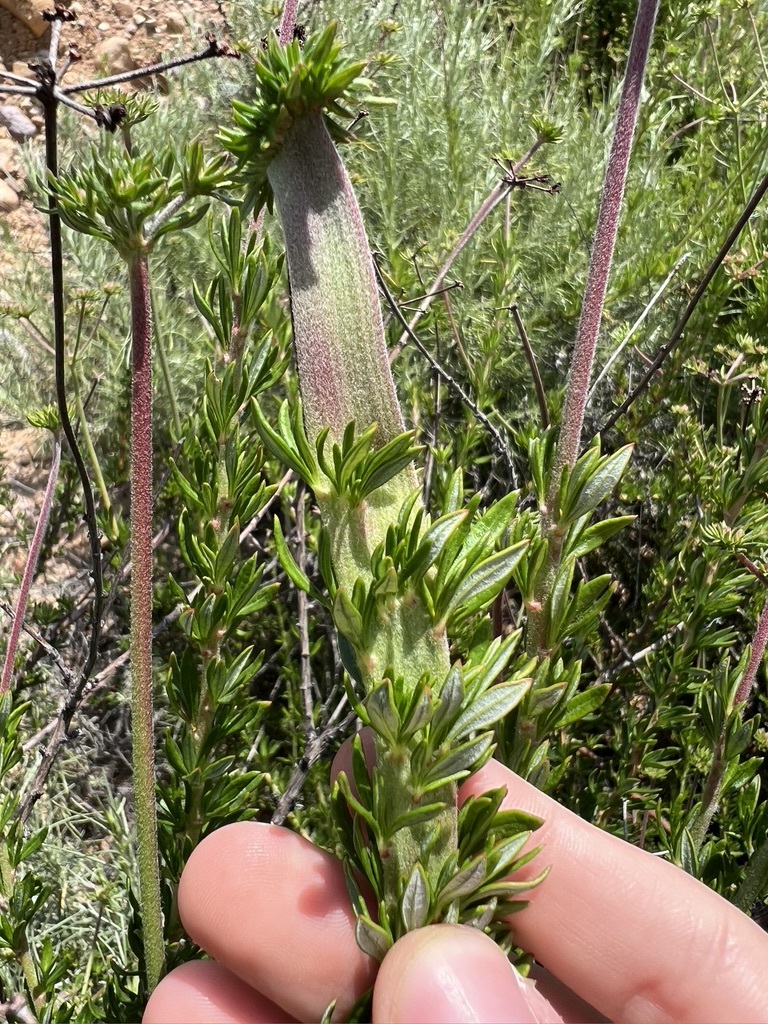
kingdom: Plantae
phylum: Tracheophyta
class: Magnoliopsida
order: Caryophyllales
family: Polygonaceae
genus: Eriogonum
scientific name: Eriogonum fasciculatum
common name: California wild buckwheat
